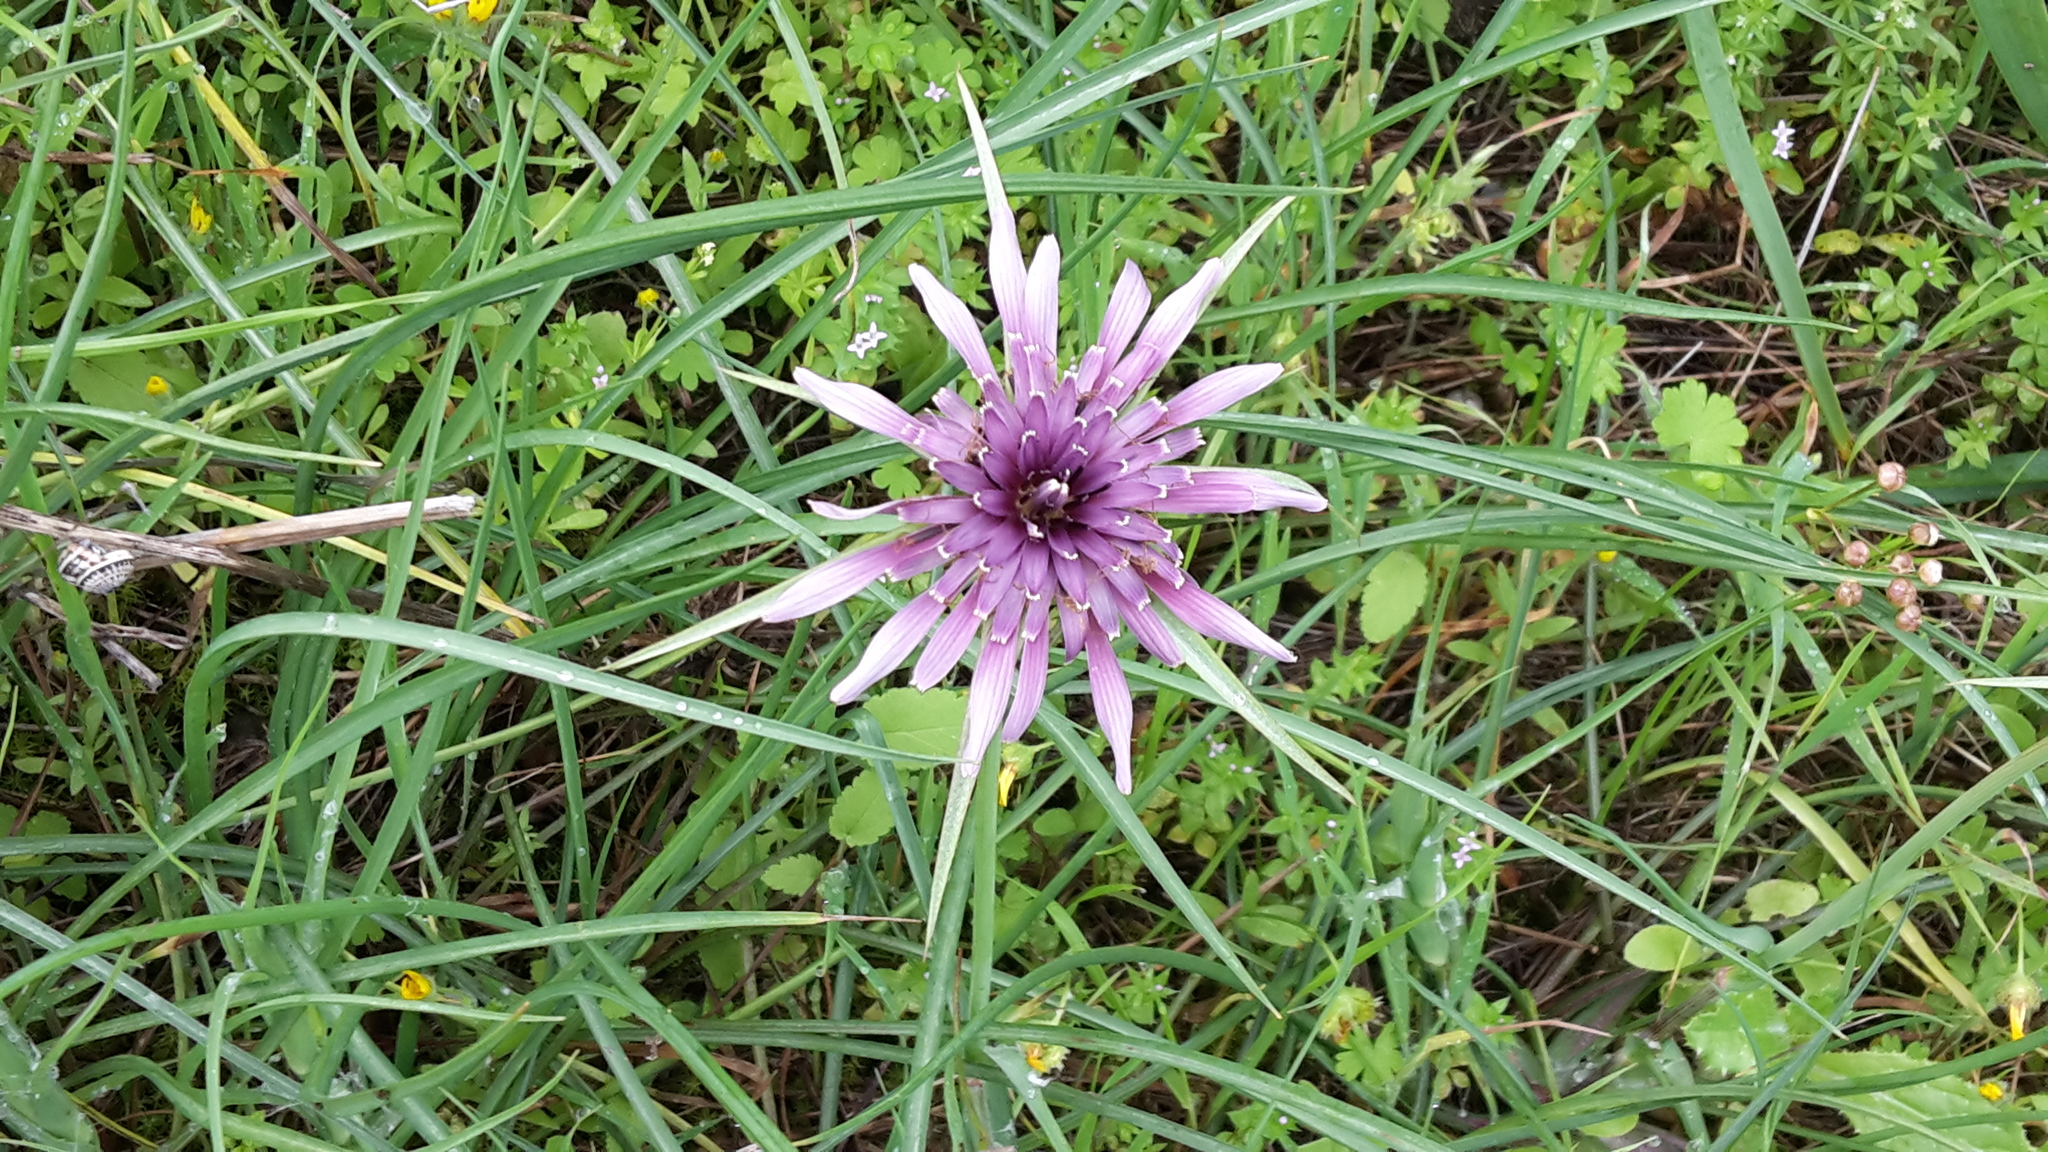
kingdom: Plantae
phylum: Tracheophyta
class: Magnoliopsida
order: Asterales
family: Asteraceae
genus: Tragopogon
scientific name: Tragopogon porrifolius
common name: Salsify
